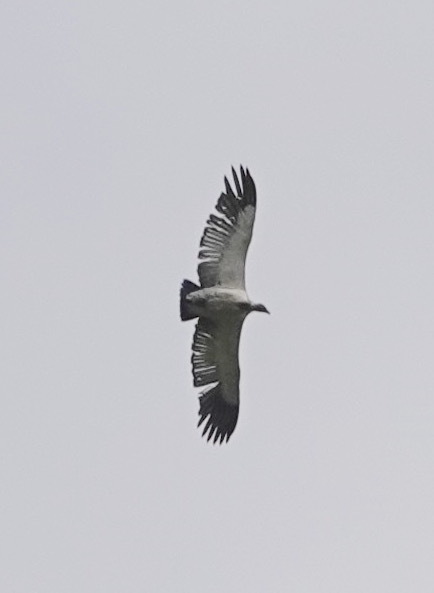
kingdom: Animalia
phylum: Chordata
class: Aves
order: Accipitriformes
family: Accipitridae
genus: Gyps
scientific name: Gyps coprotheres
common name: Cape vulture
